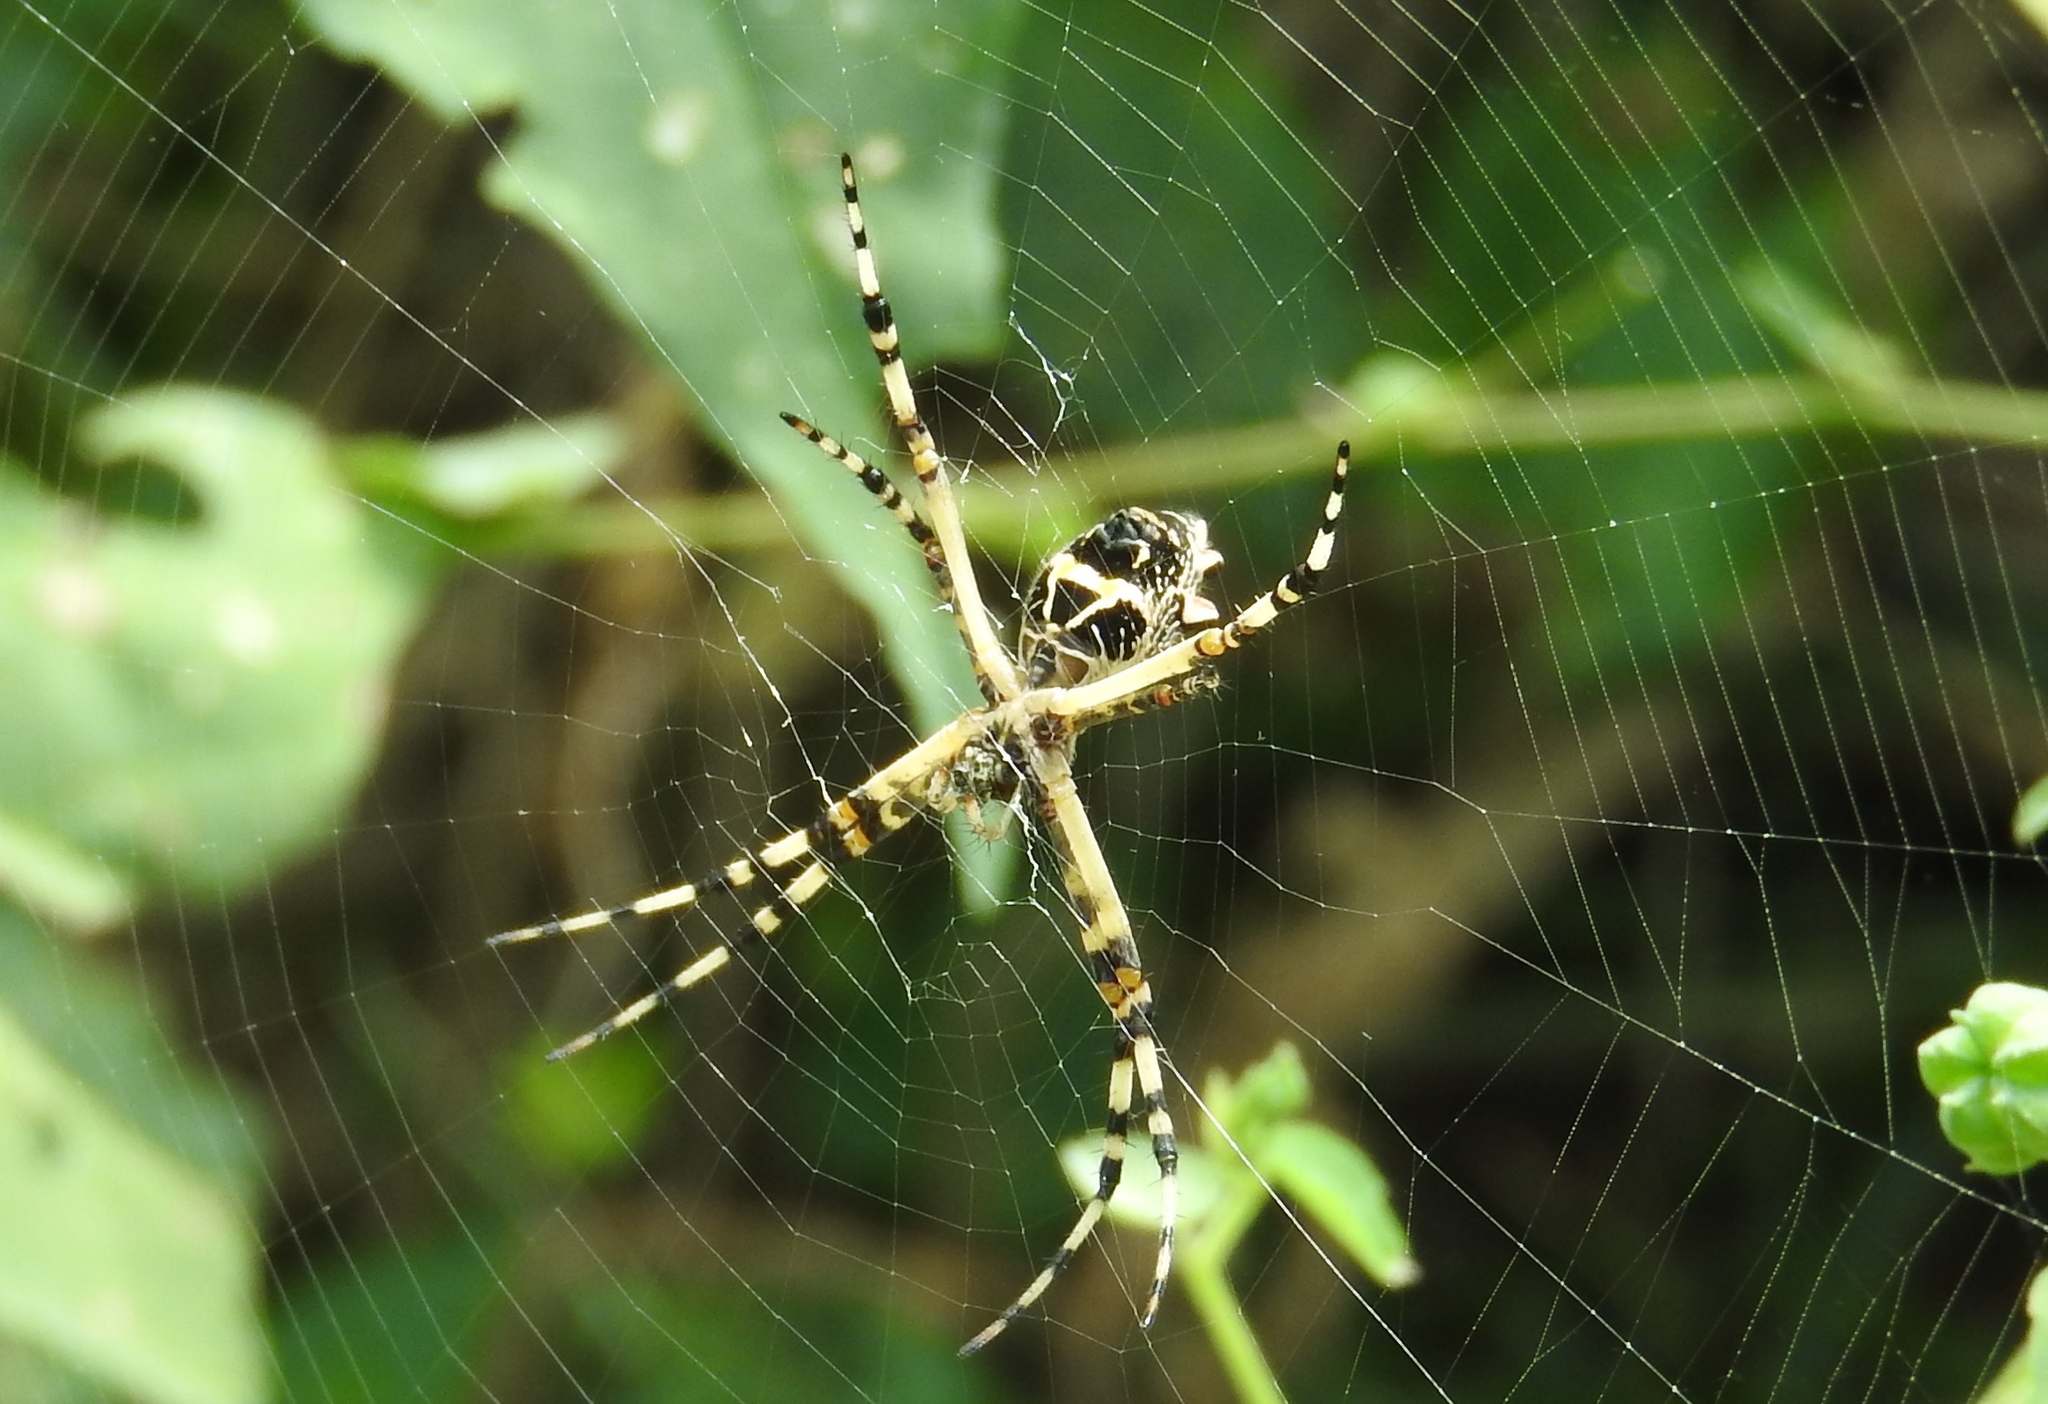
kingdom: Animalia
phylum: Arthropoda
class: Arachnida
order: Araneae
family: Araneidae
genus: Argiope
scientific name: Argiope argentata
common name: Orb weavers
